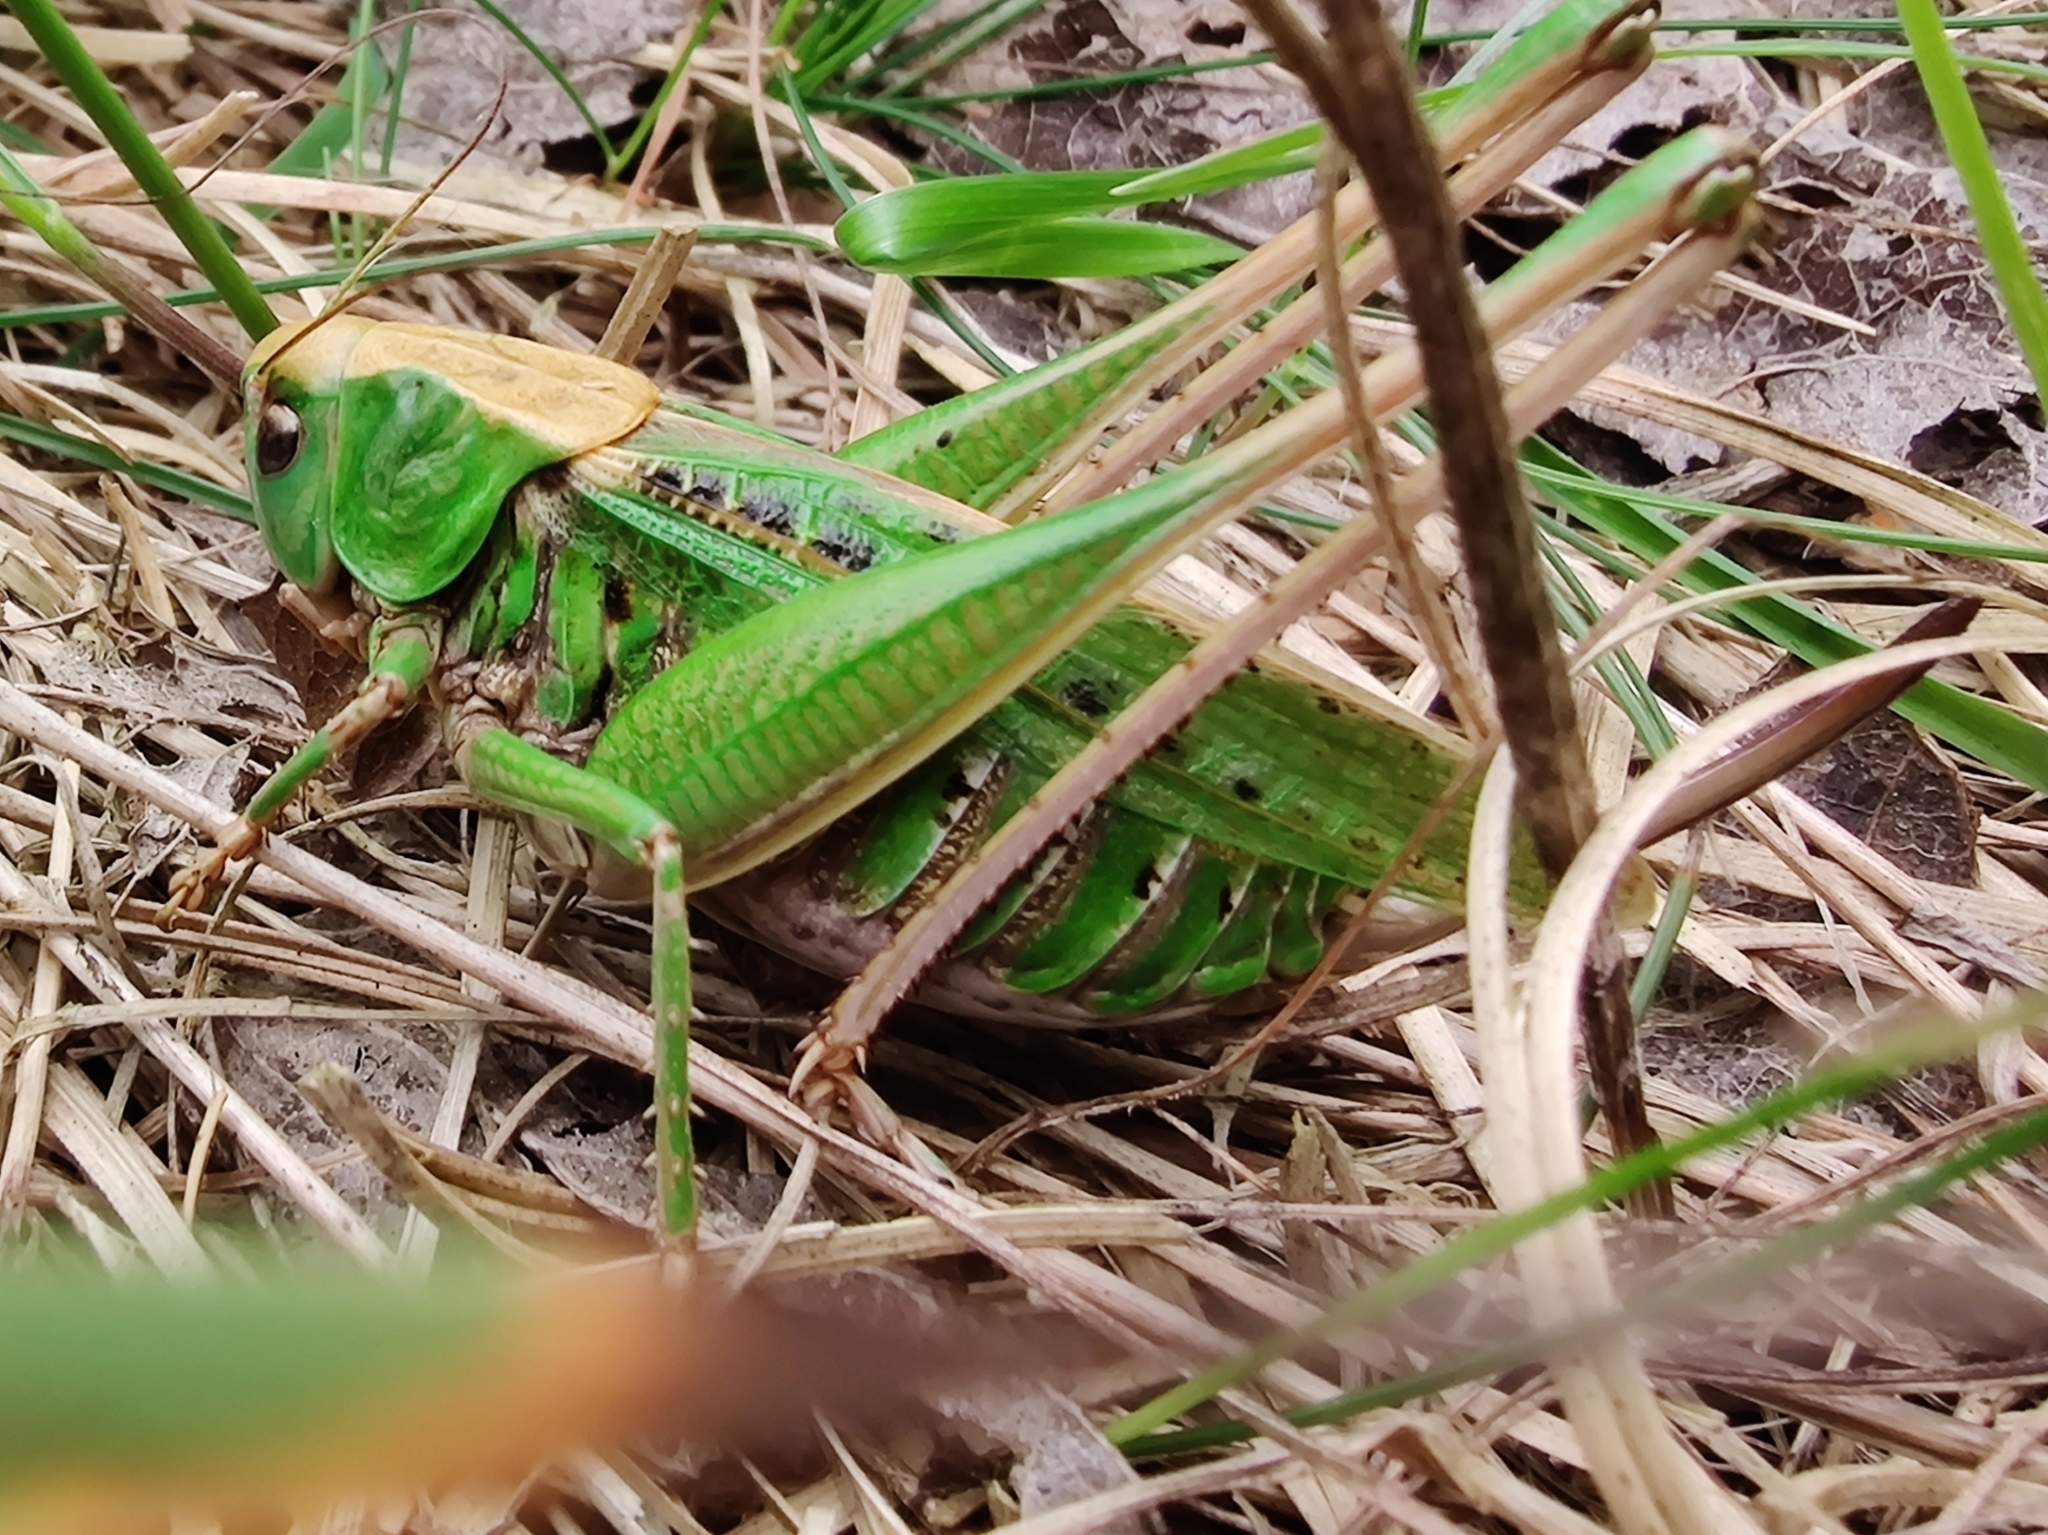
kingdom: Animalia
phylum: Arthropoda
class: Insecta
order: Orthoptera
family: Tettigoniidae
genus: Decticus
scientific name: Decticus verrucivorus
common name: Wart-biter
